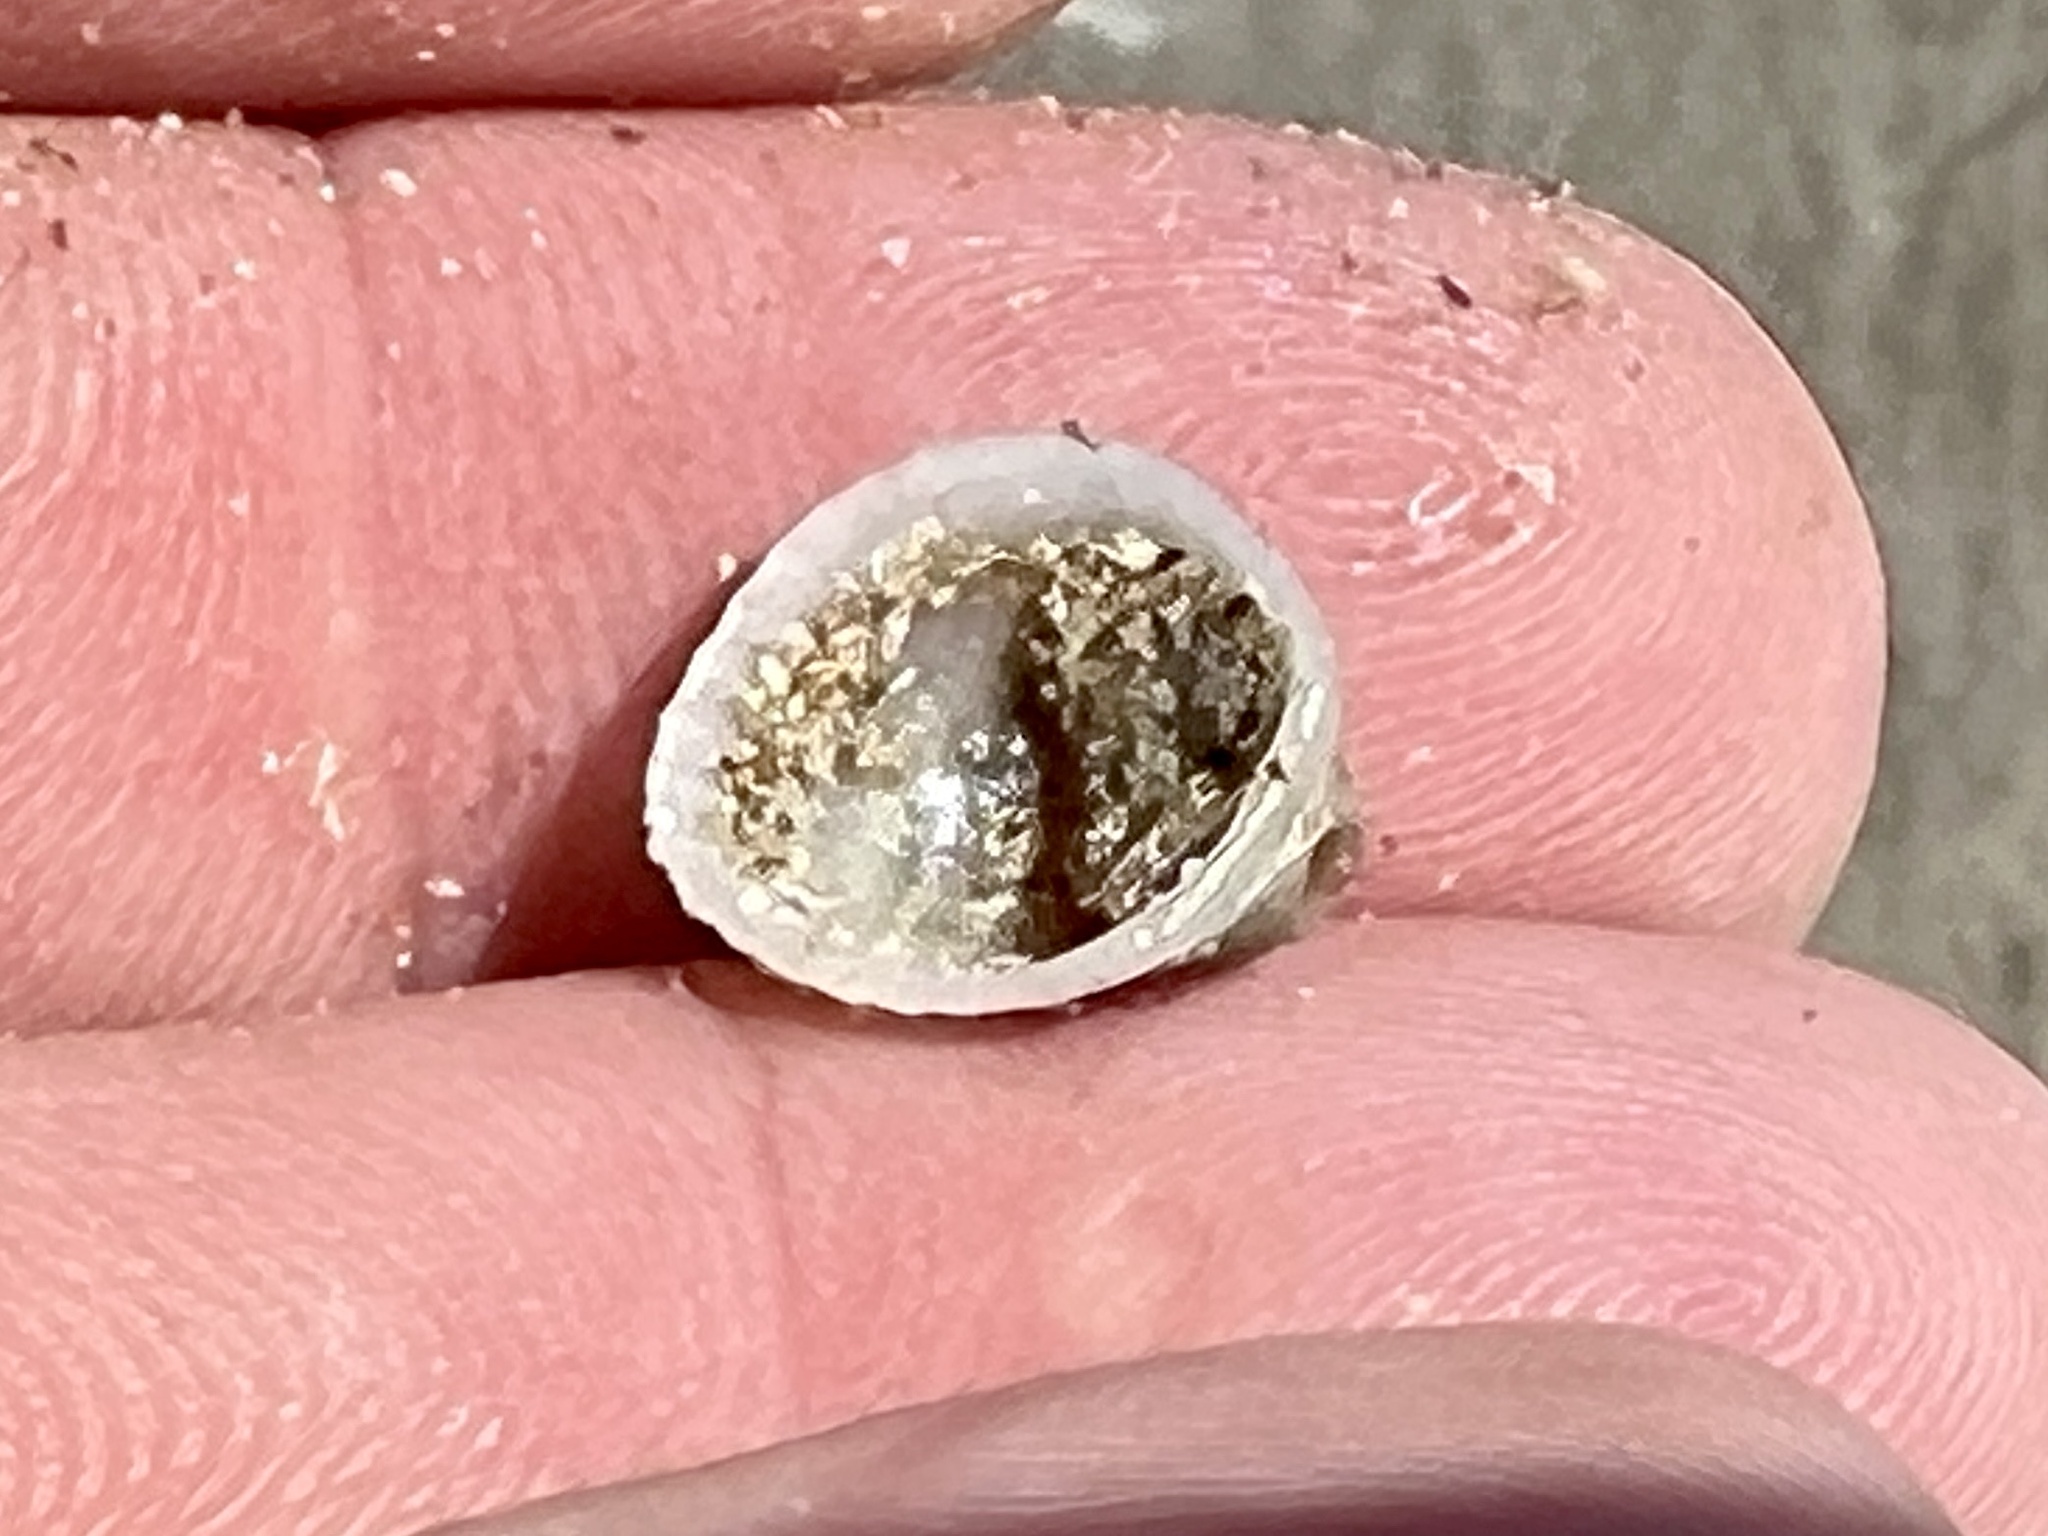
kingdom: Animalia
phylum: Mollusca
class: Bivalvia
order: Arcida
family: Arcidae
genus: Anadara
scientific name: Anadara chemnitzii
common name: Chemnitz's triangular ark
